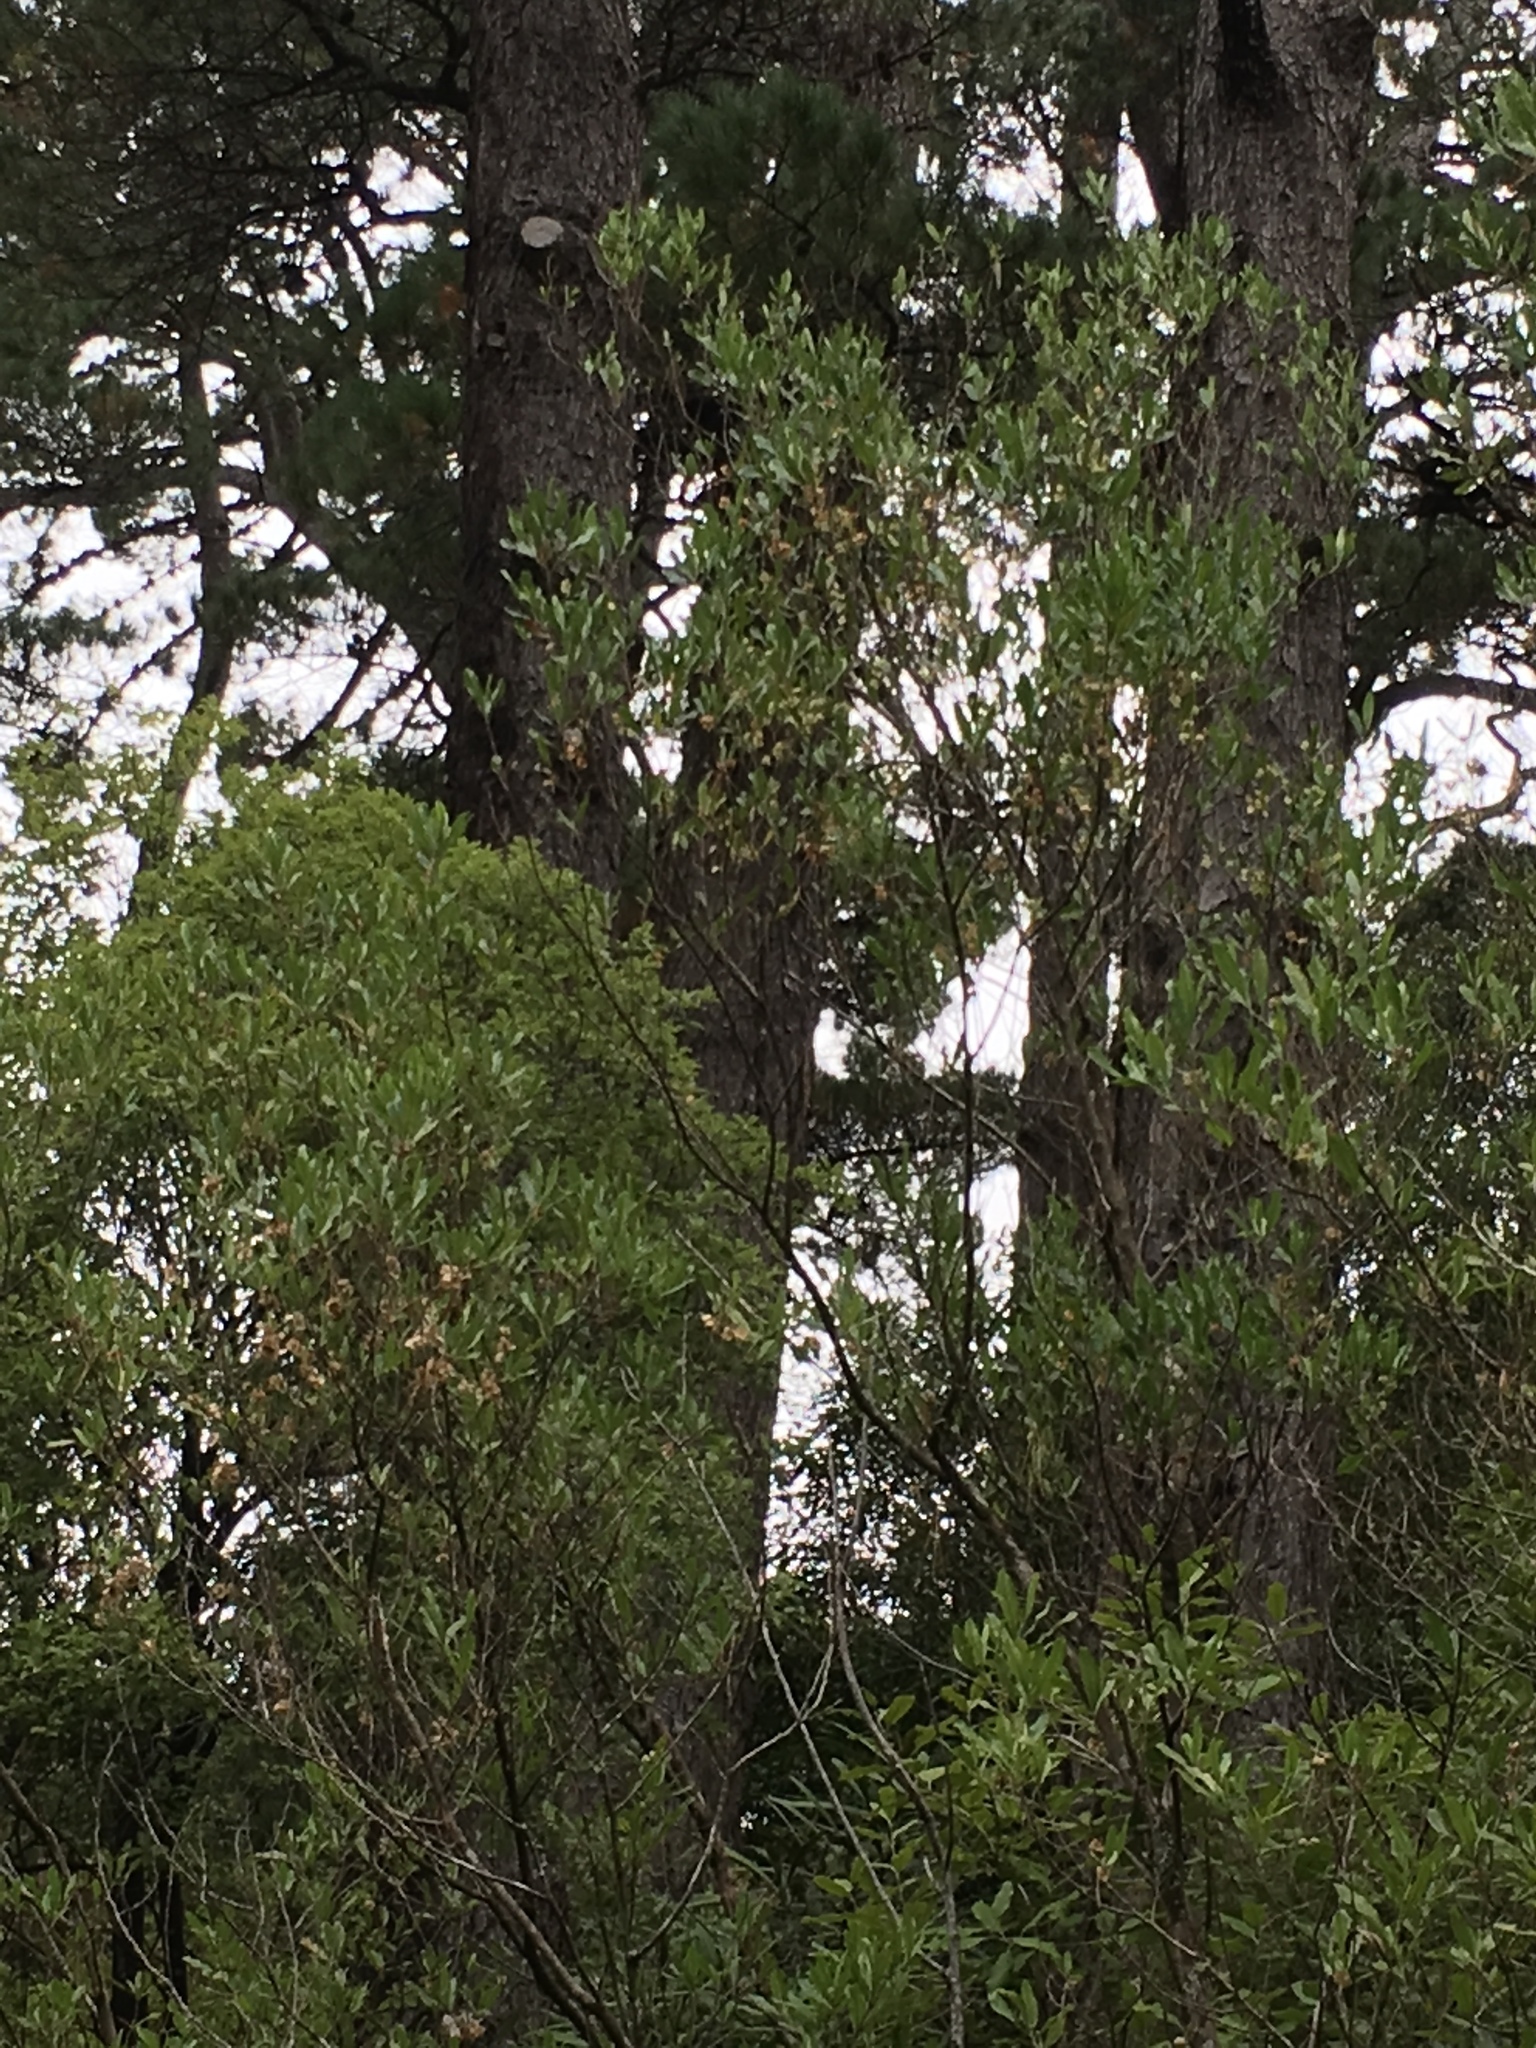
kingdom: Plantae
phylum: Tracheophyta
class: Magnoliopsida
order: Sapindales
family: Sapindaceae
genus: Dodonaea
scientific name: Dodonaea viscosa
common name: Hopbush
